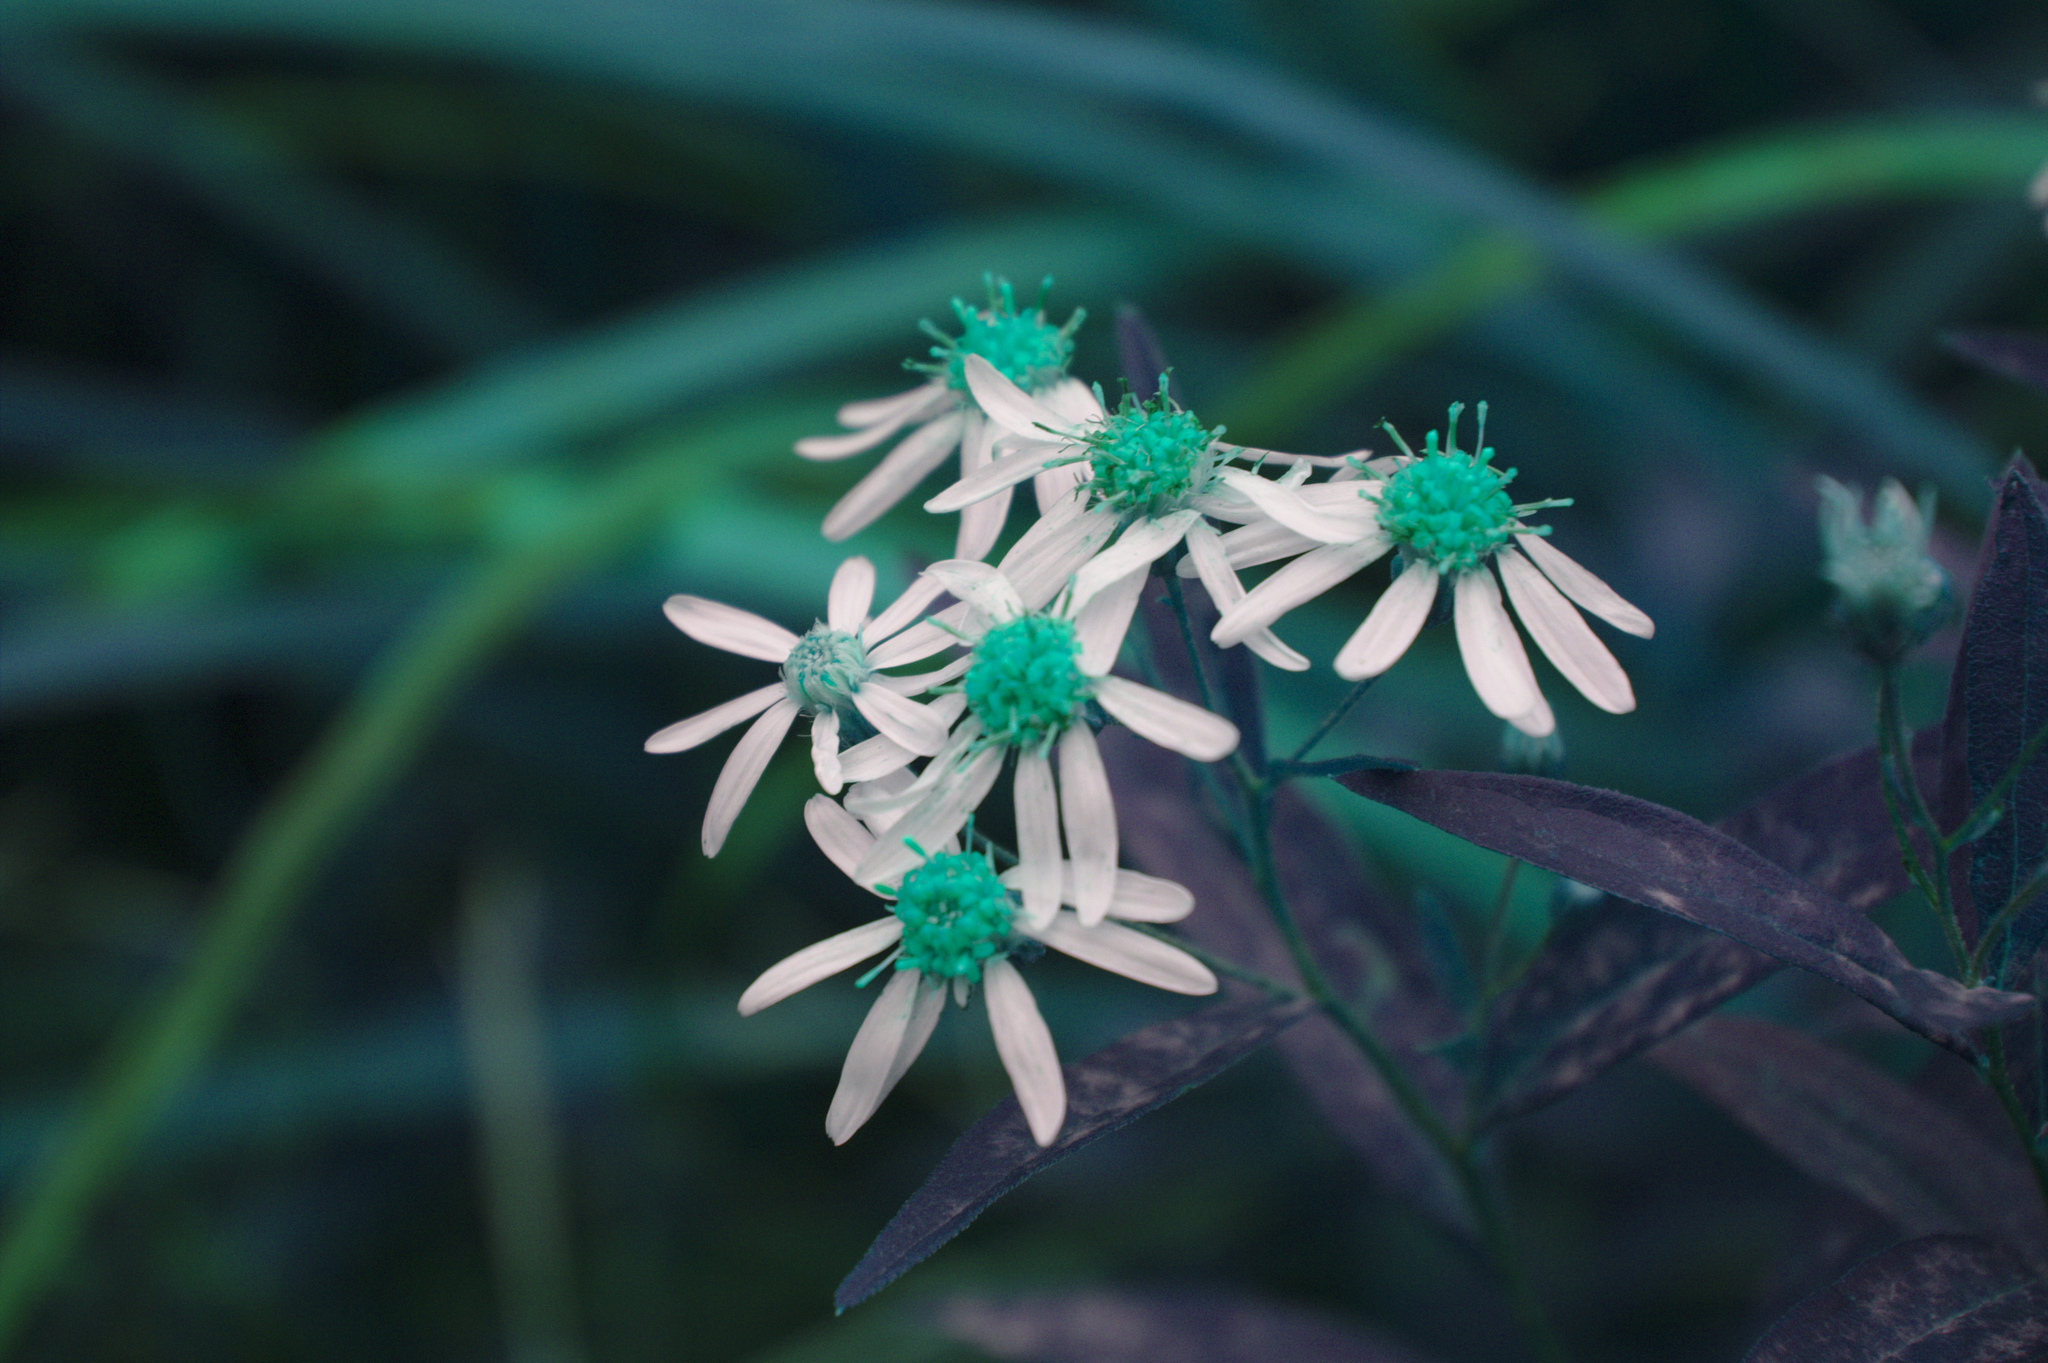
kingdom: Plantae
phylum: Tracheophyta
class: Magnoliopsida
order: Asterales
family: Asteraceae
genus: Doellingeria
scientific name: Doellingeria umbellata
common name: Flat-top white aster
